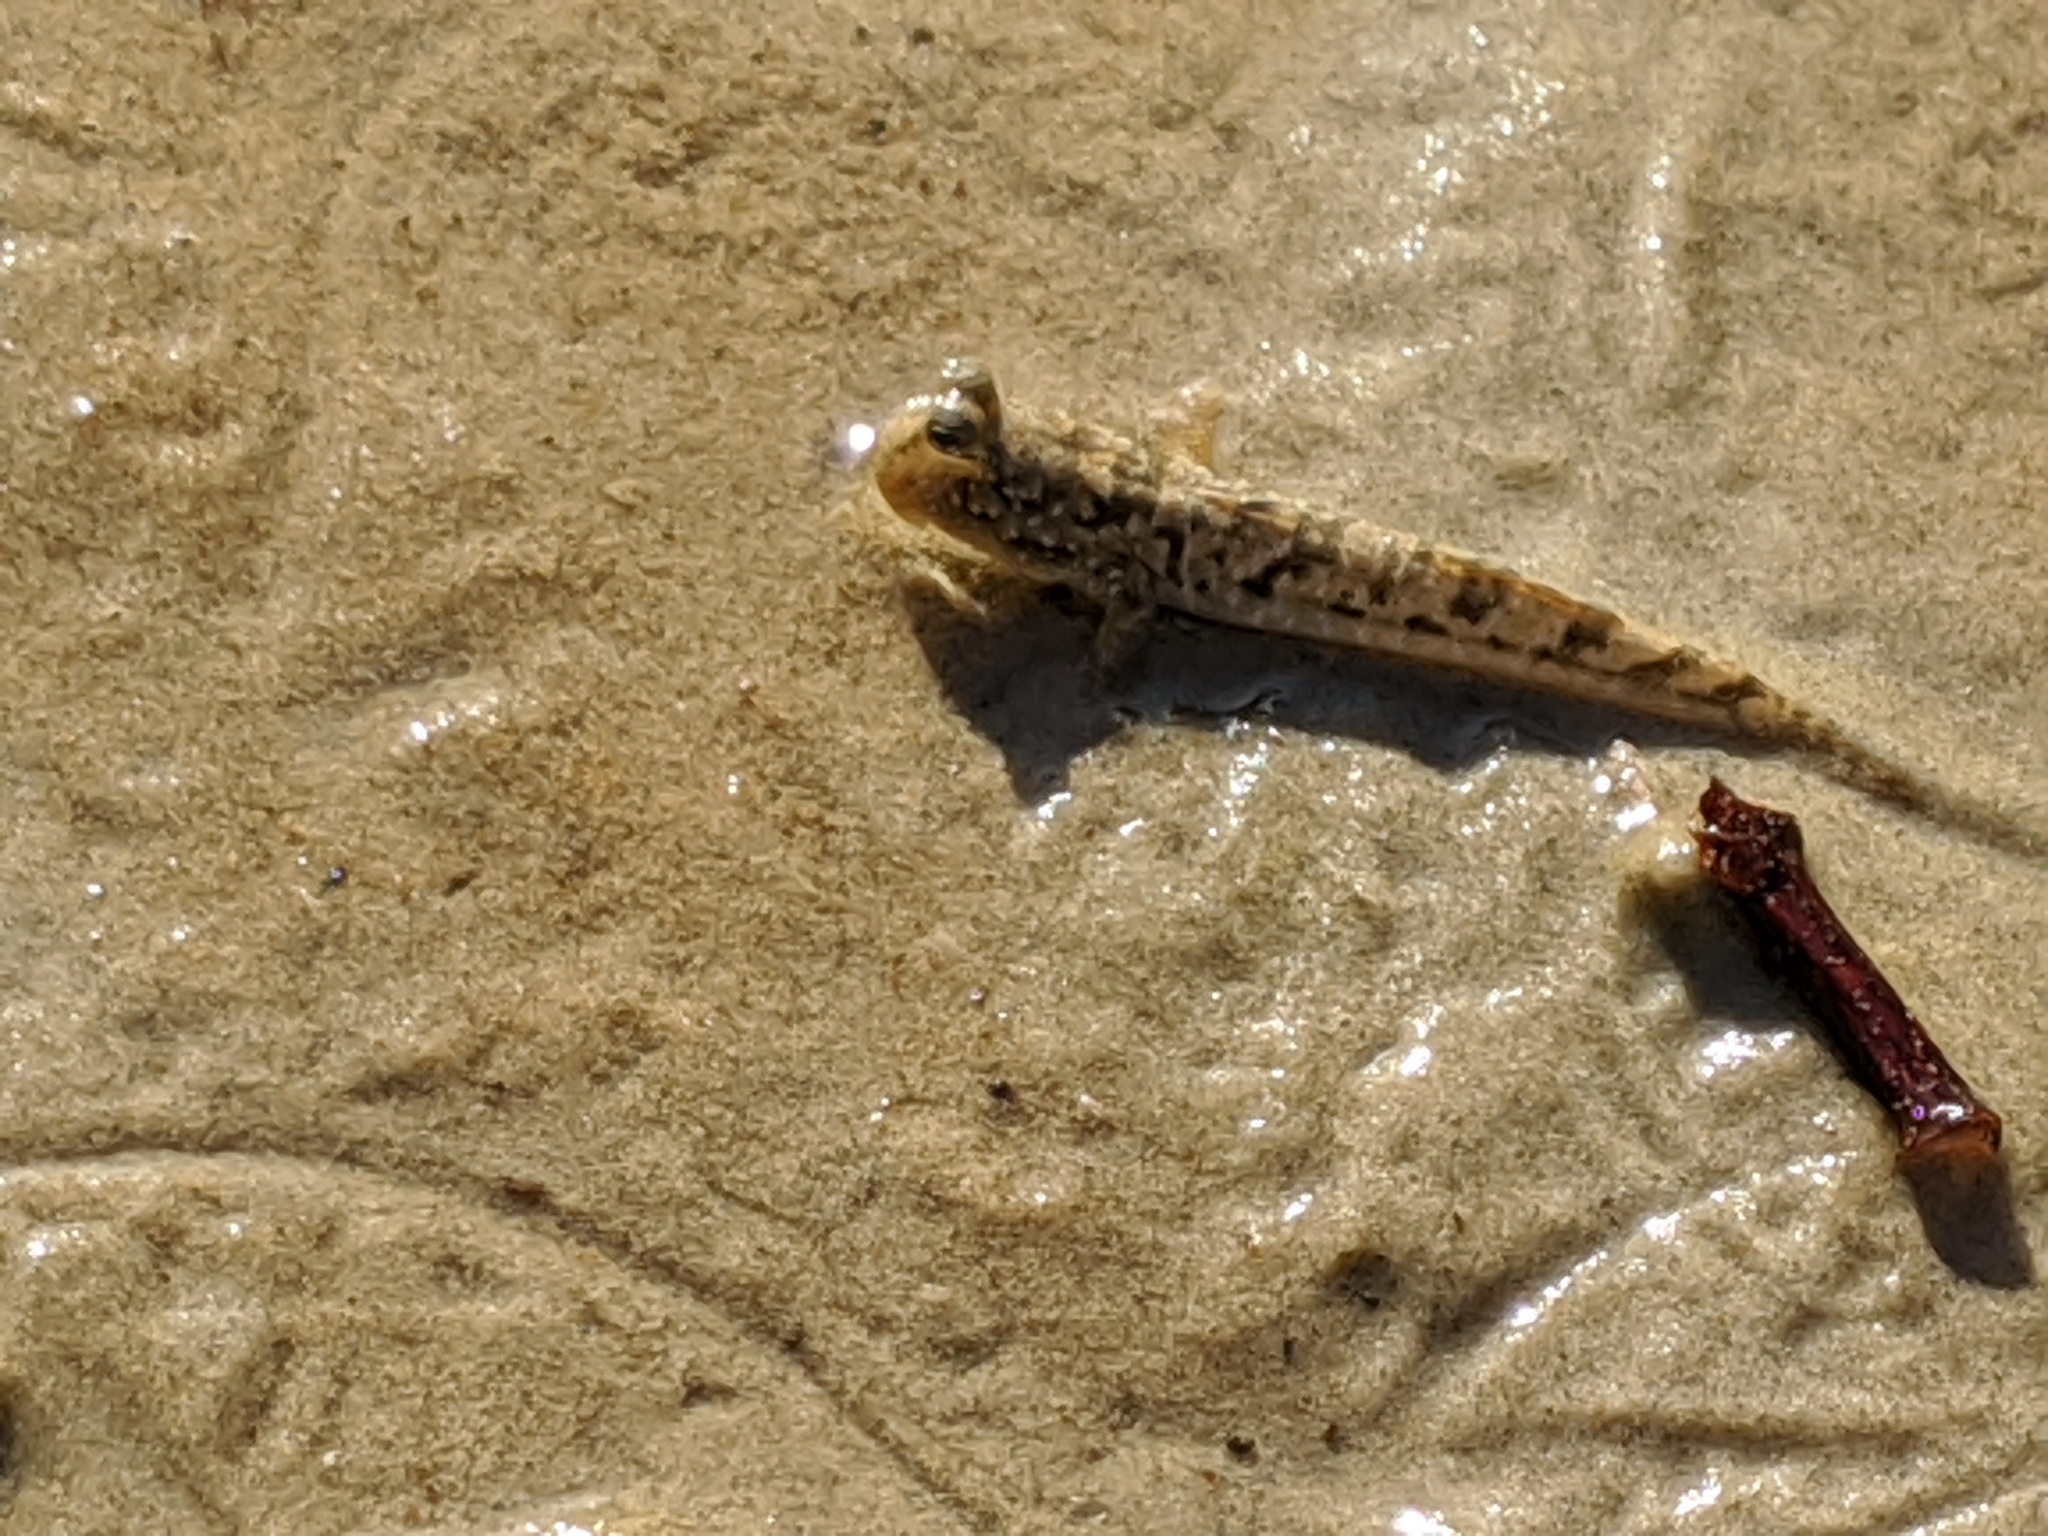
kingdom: Animalia
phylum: Chordata
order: Perciformes
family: Gobiidae
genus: Periophthalmus
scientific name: Periophthalmus gracilis
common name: Graceful mudskipper
